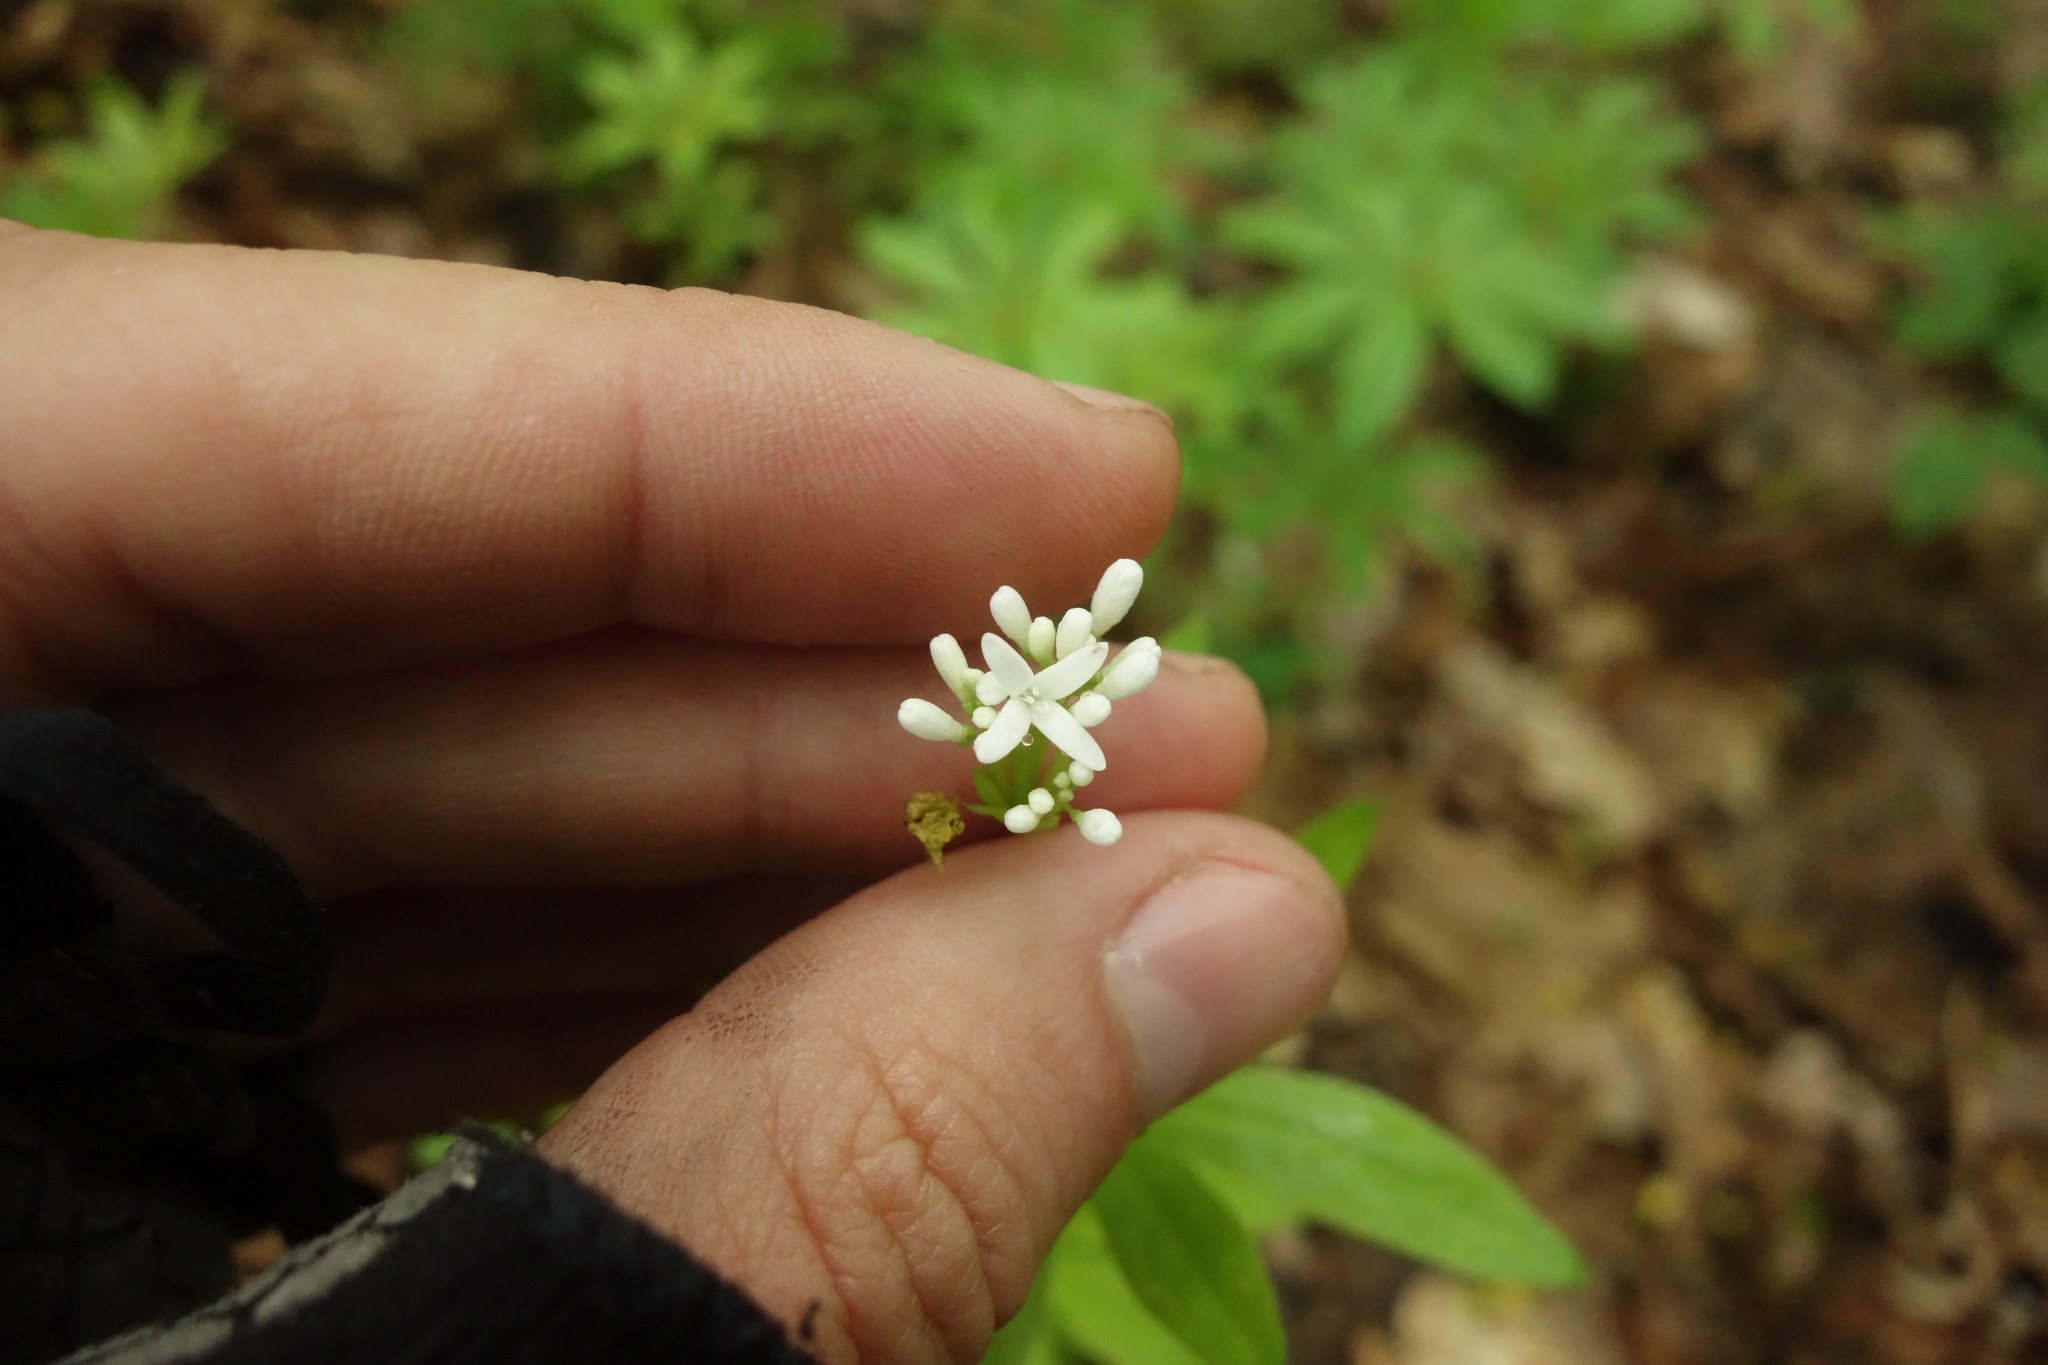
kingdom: Plantae
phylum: Tracheophyta
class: Magnoliopsida
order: Gentianales
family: Rubiaceae
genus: Galium
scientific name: Galium odoratum
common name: Sweet woodruff
